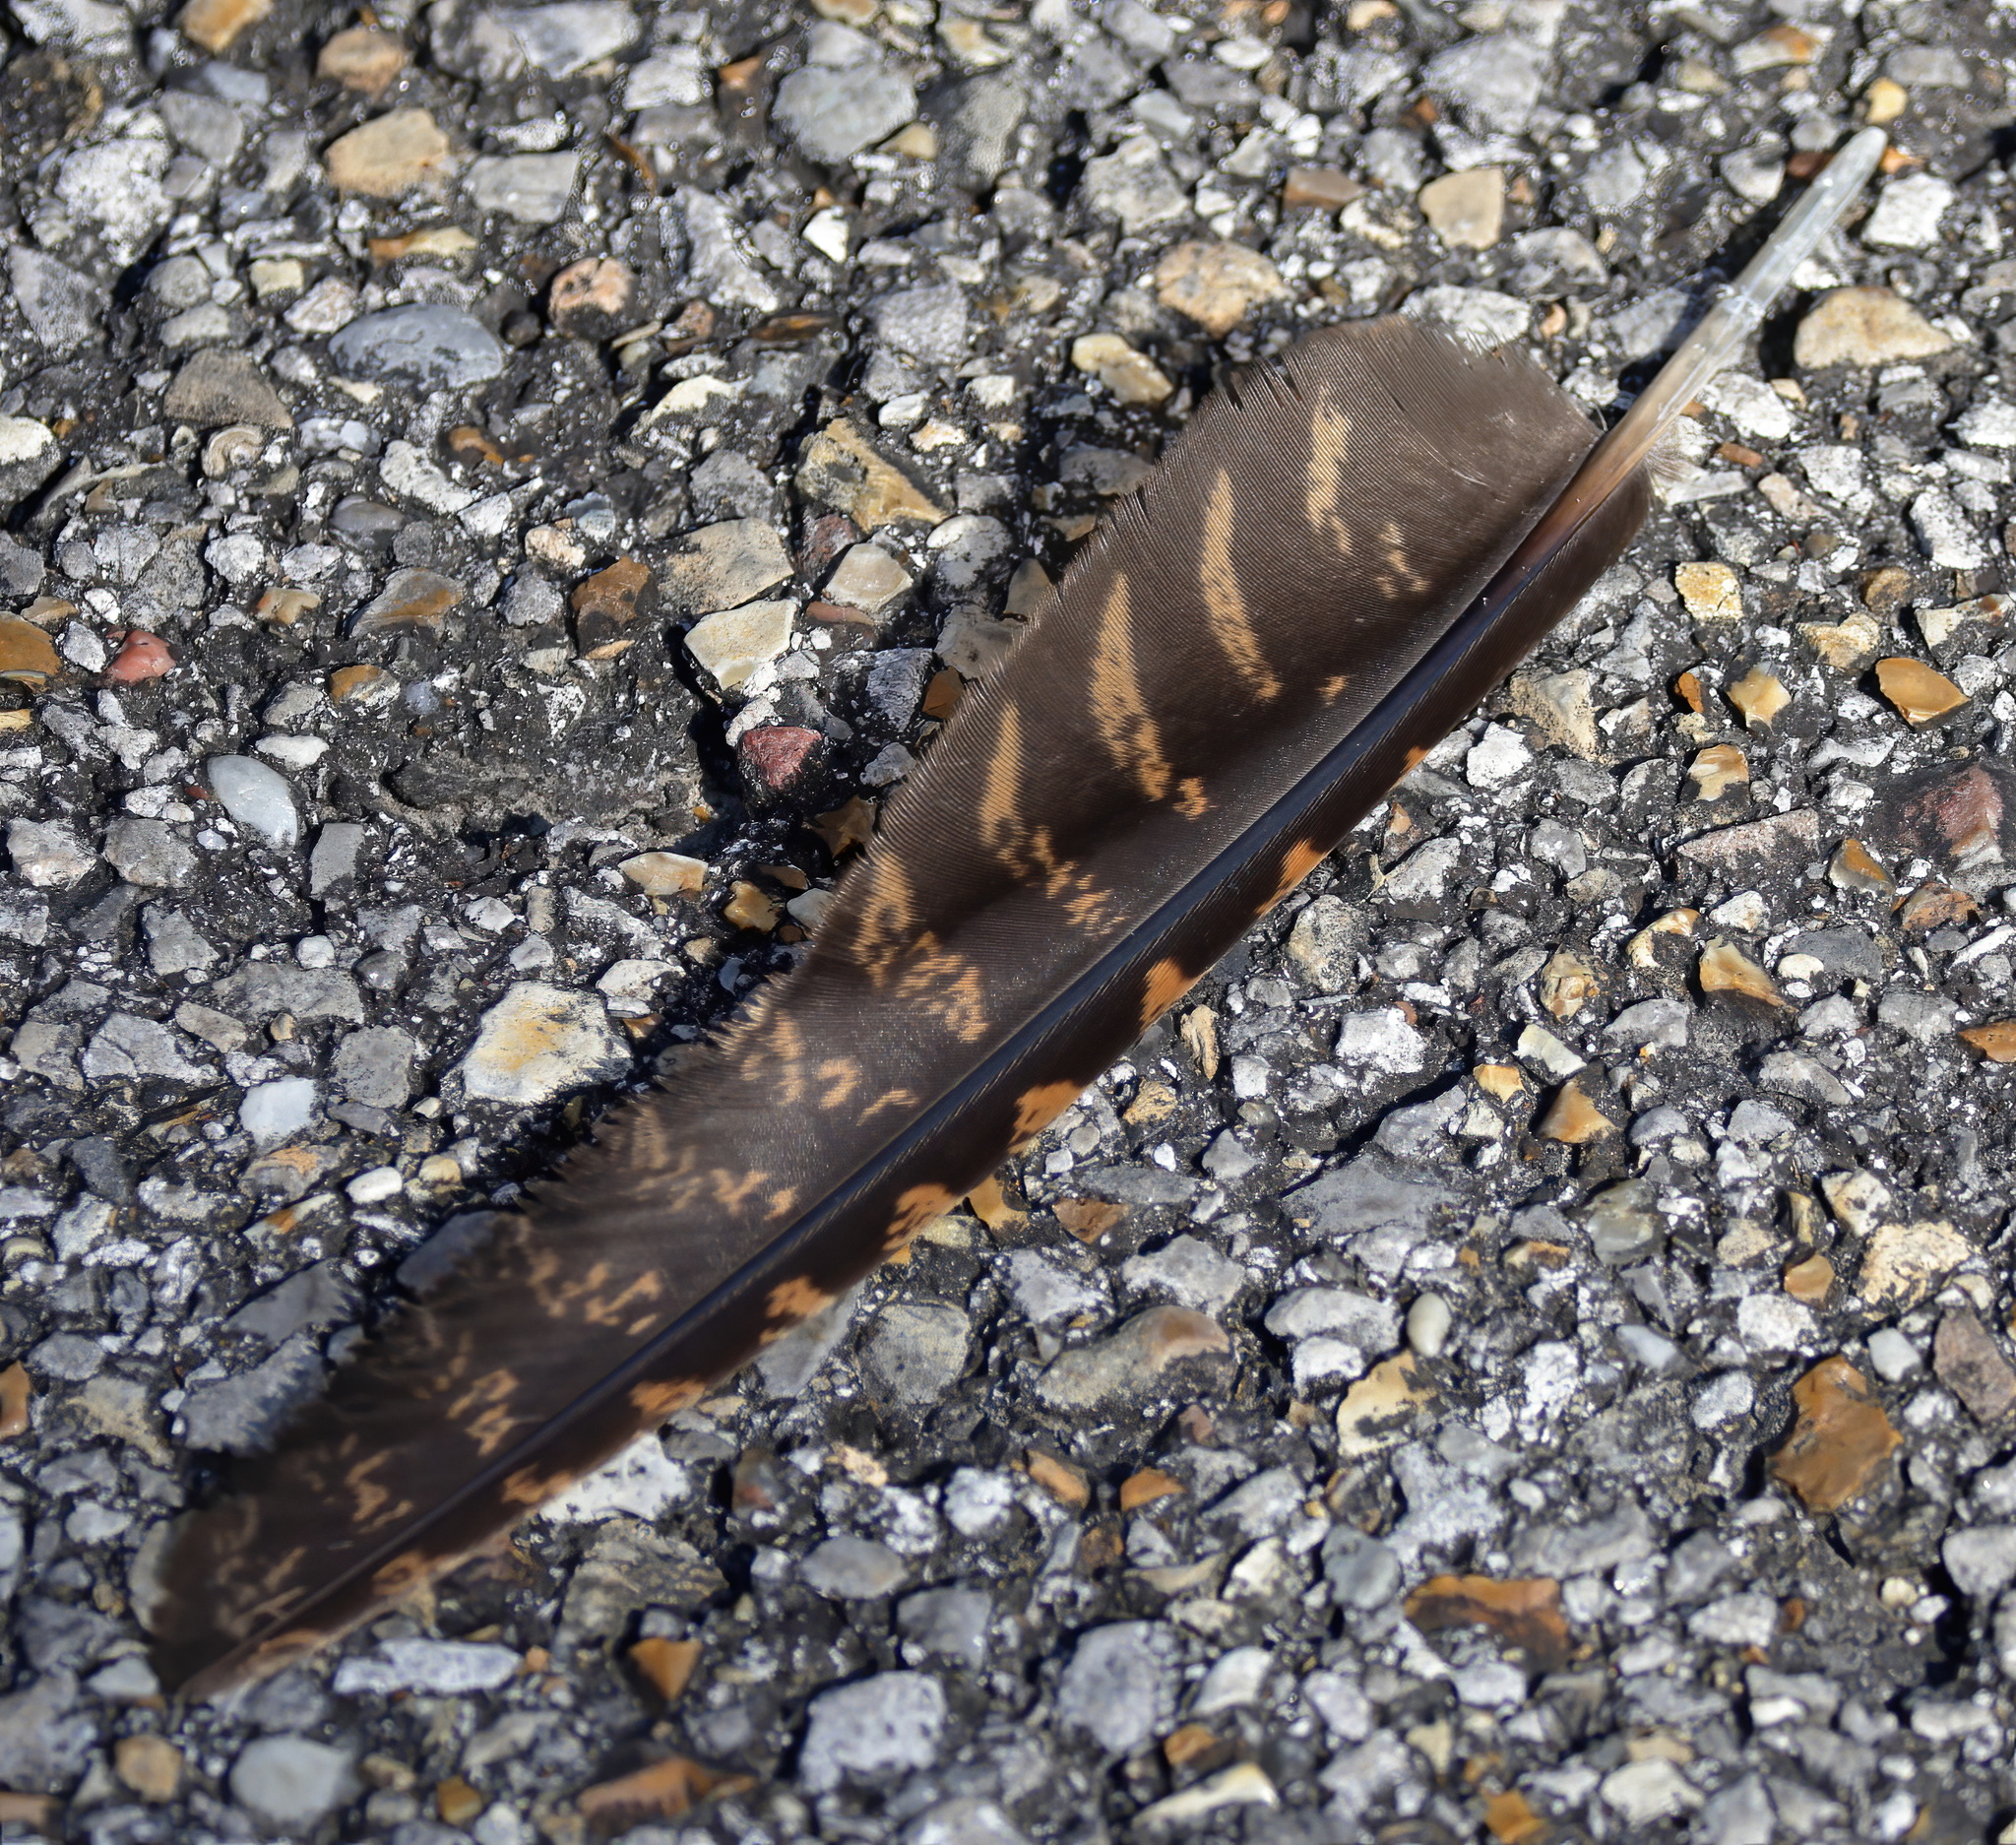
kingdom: Animalia
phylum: Chordata
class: Aves
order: Caprimulgiformes
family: Caprimulgidae
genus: Antrostomus
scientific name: Antrostomus carolinensis
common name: Chuck-will's-widow
